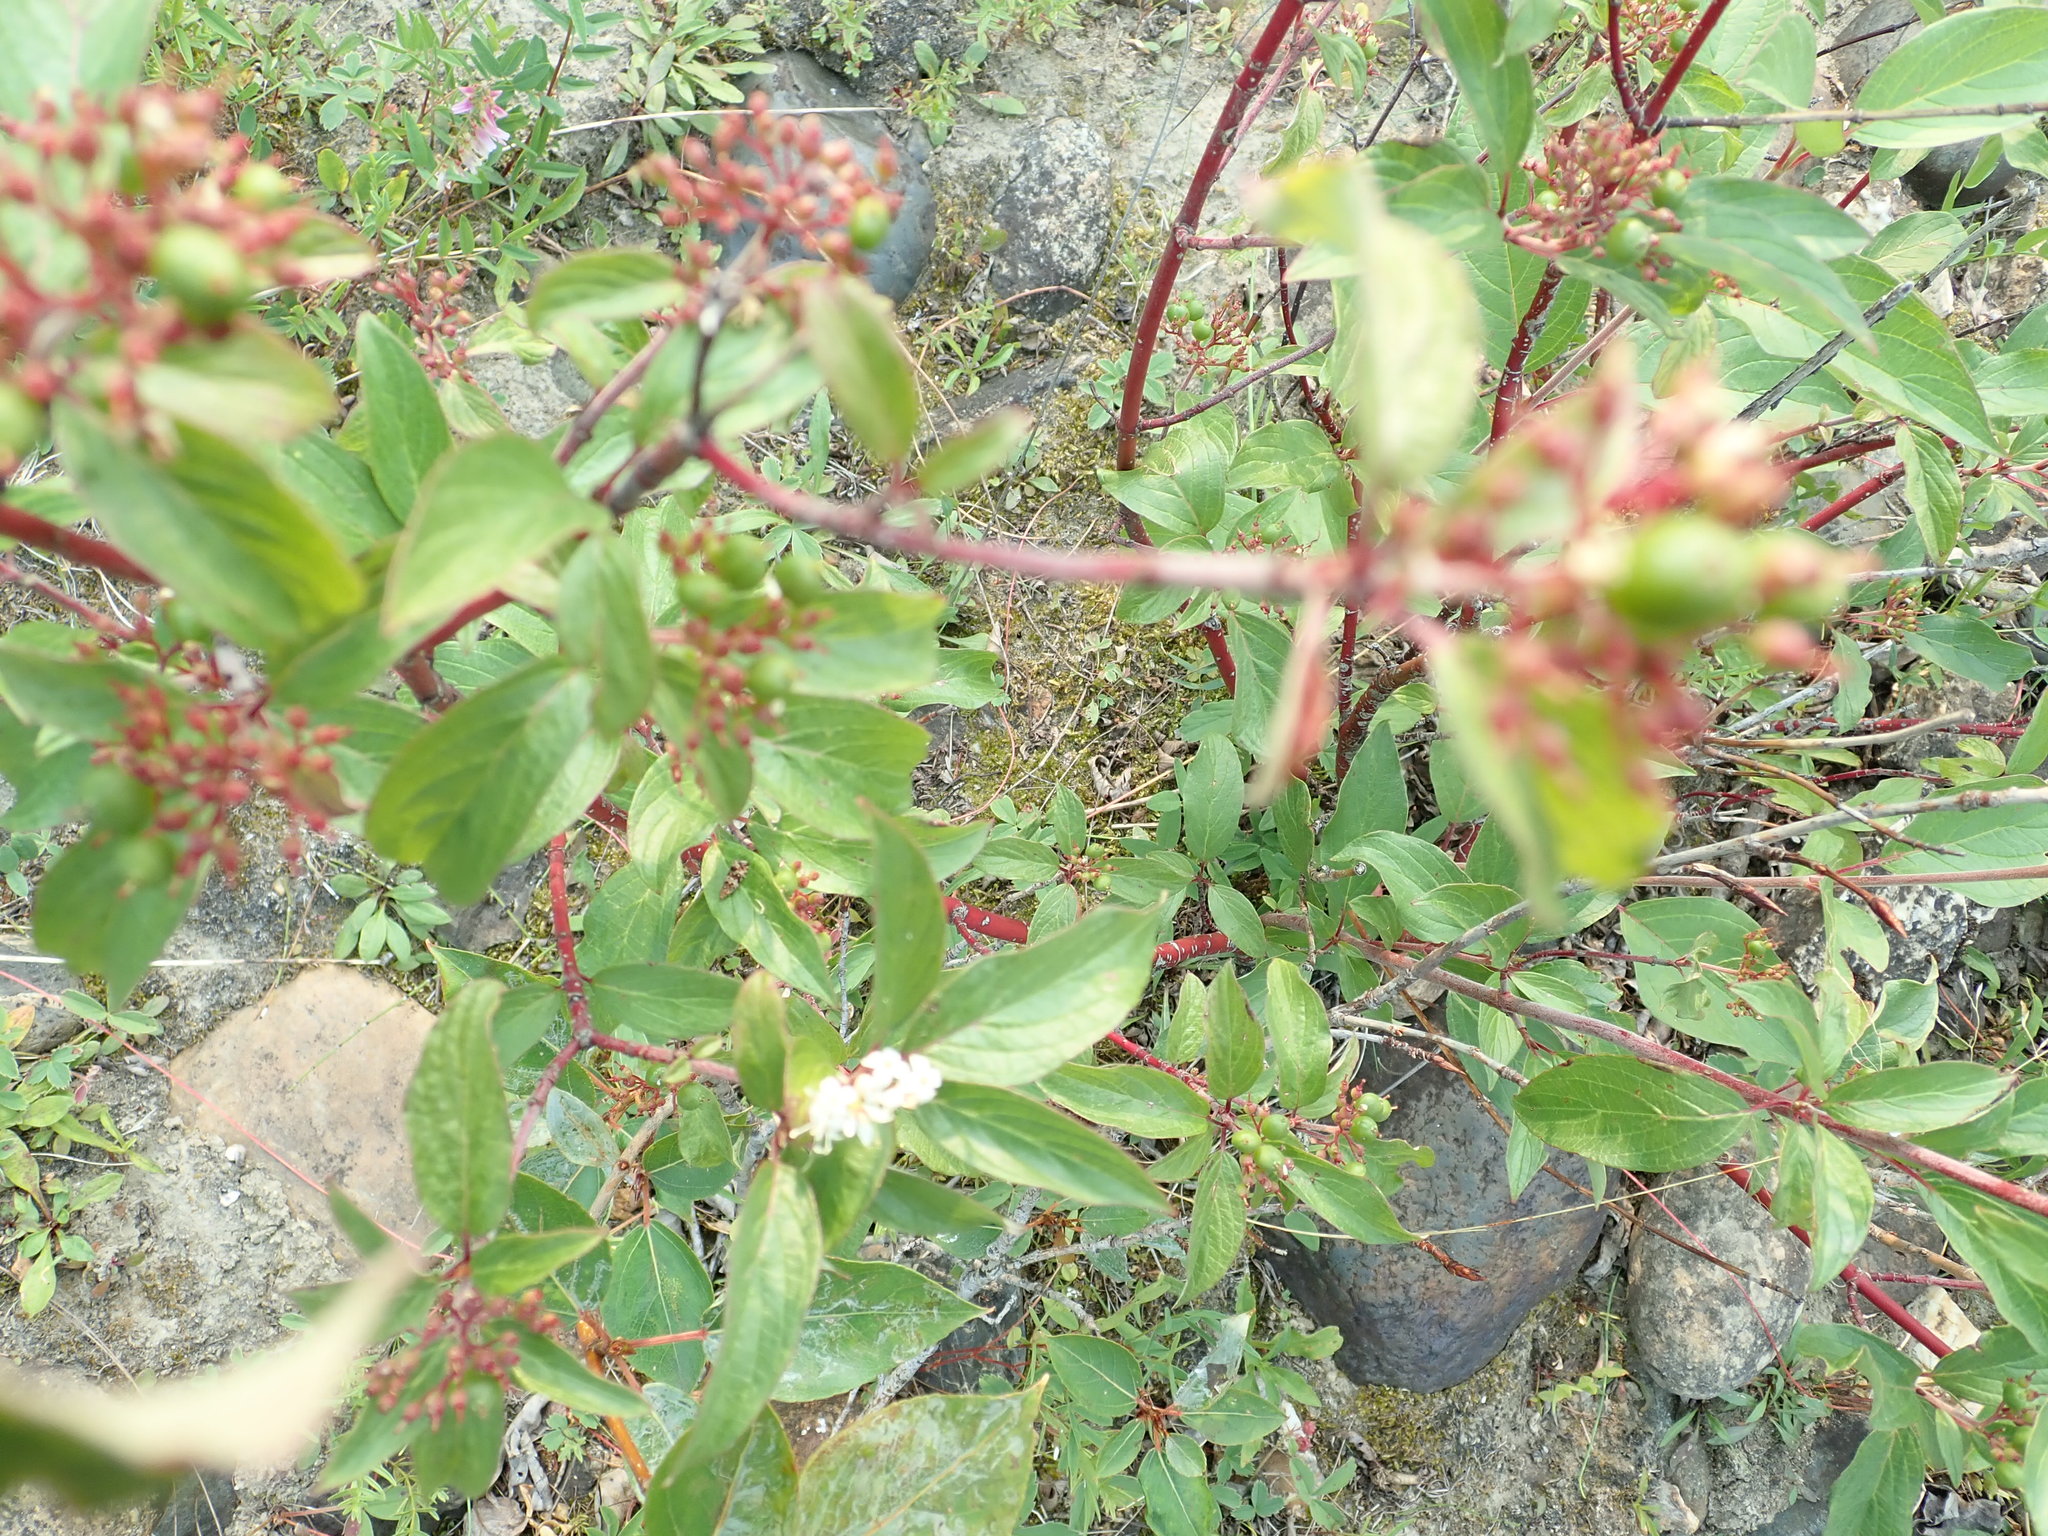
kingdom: Plantae
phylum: Tracheophyta
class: Magnoliopsida
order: Cornales
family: Cornaceae
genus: Cornus
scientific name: Cornus sericea
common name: Red-osier dogwood
